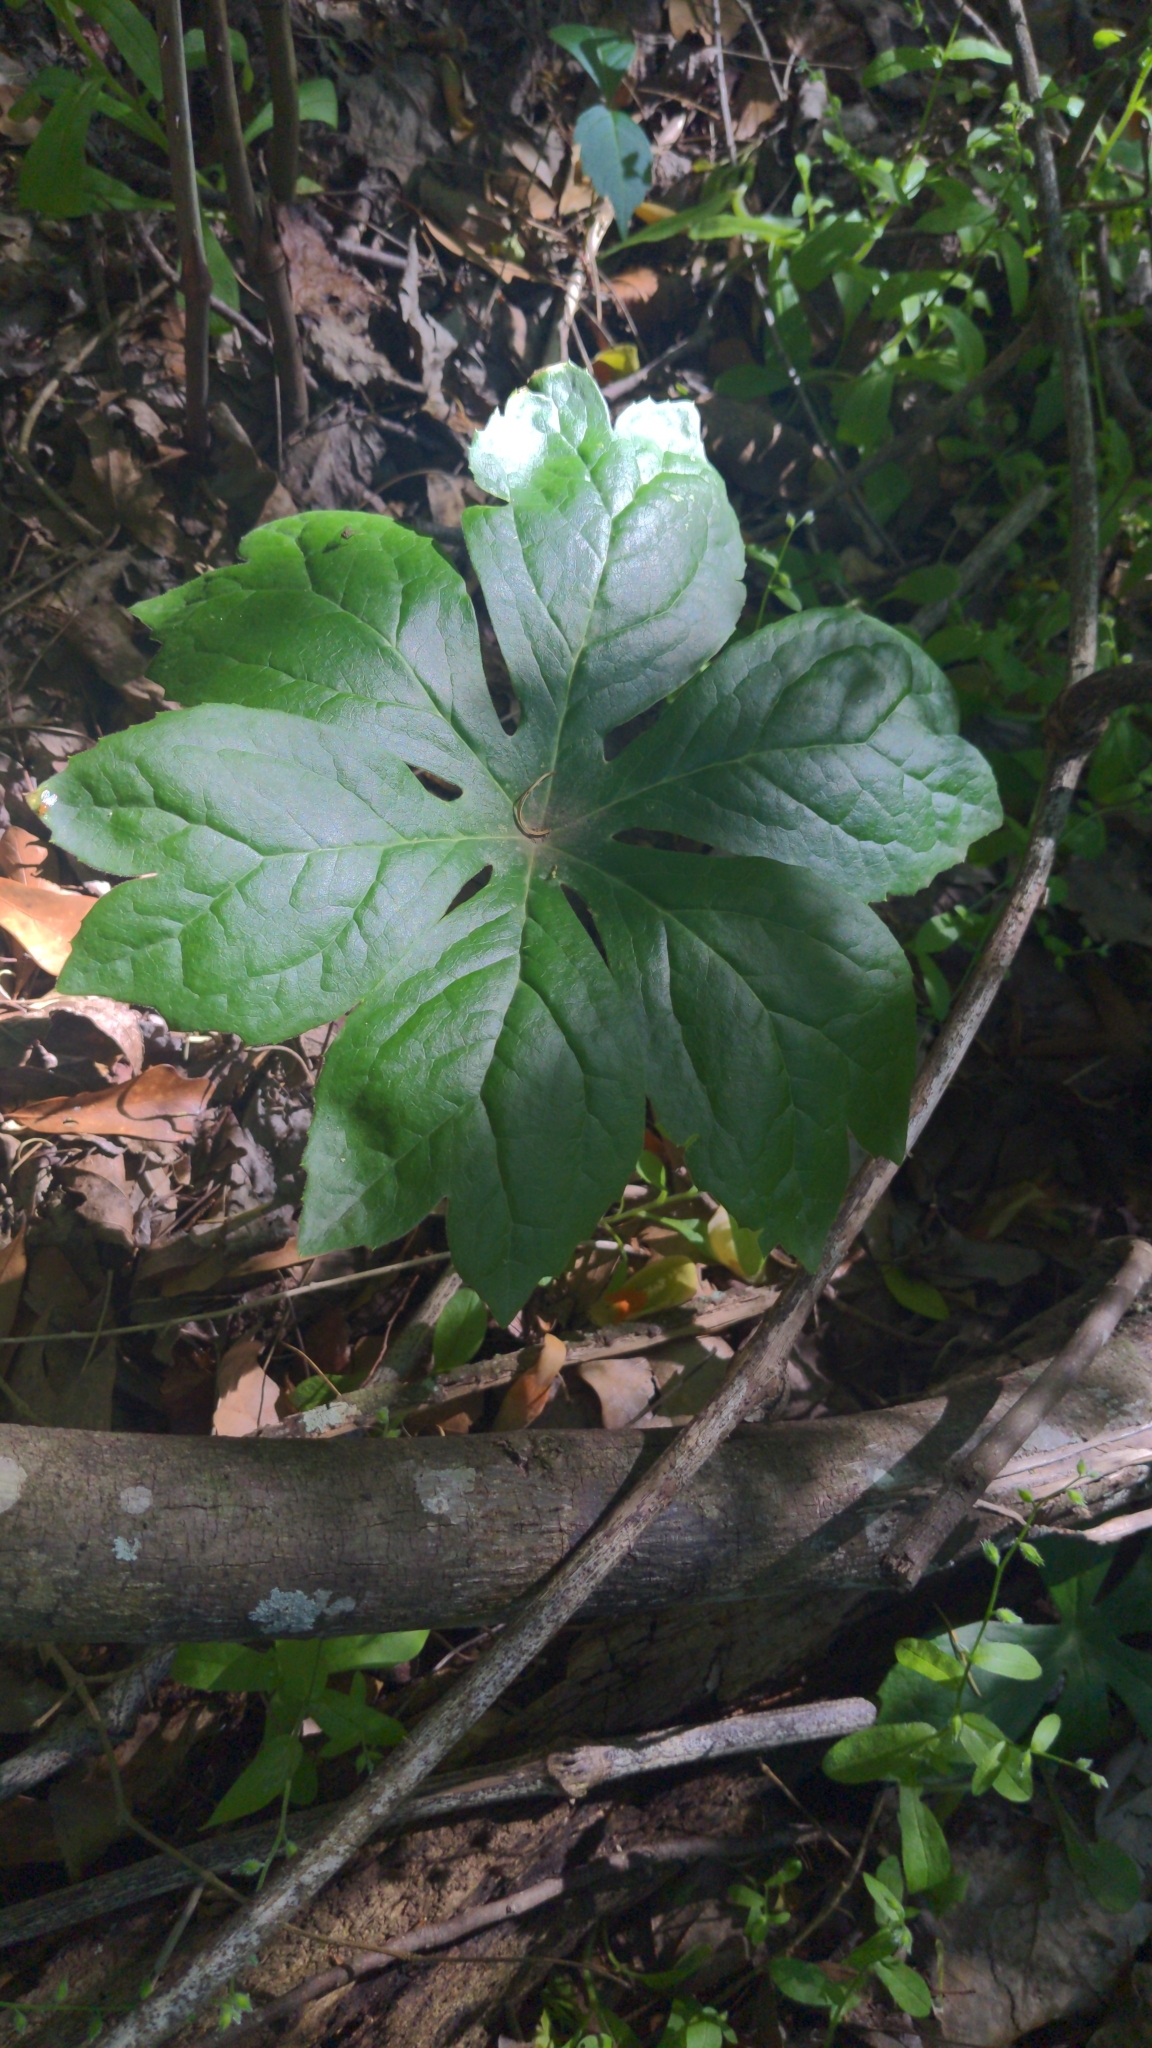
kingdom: Plantae
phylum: Tracheophyta
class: Magnoliopsida
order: Ranunculales
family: Berberidaceae
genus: Podophyllum
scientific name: Podophyllum peltatum
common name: Wild mandrake
